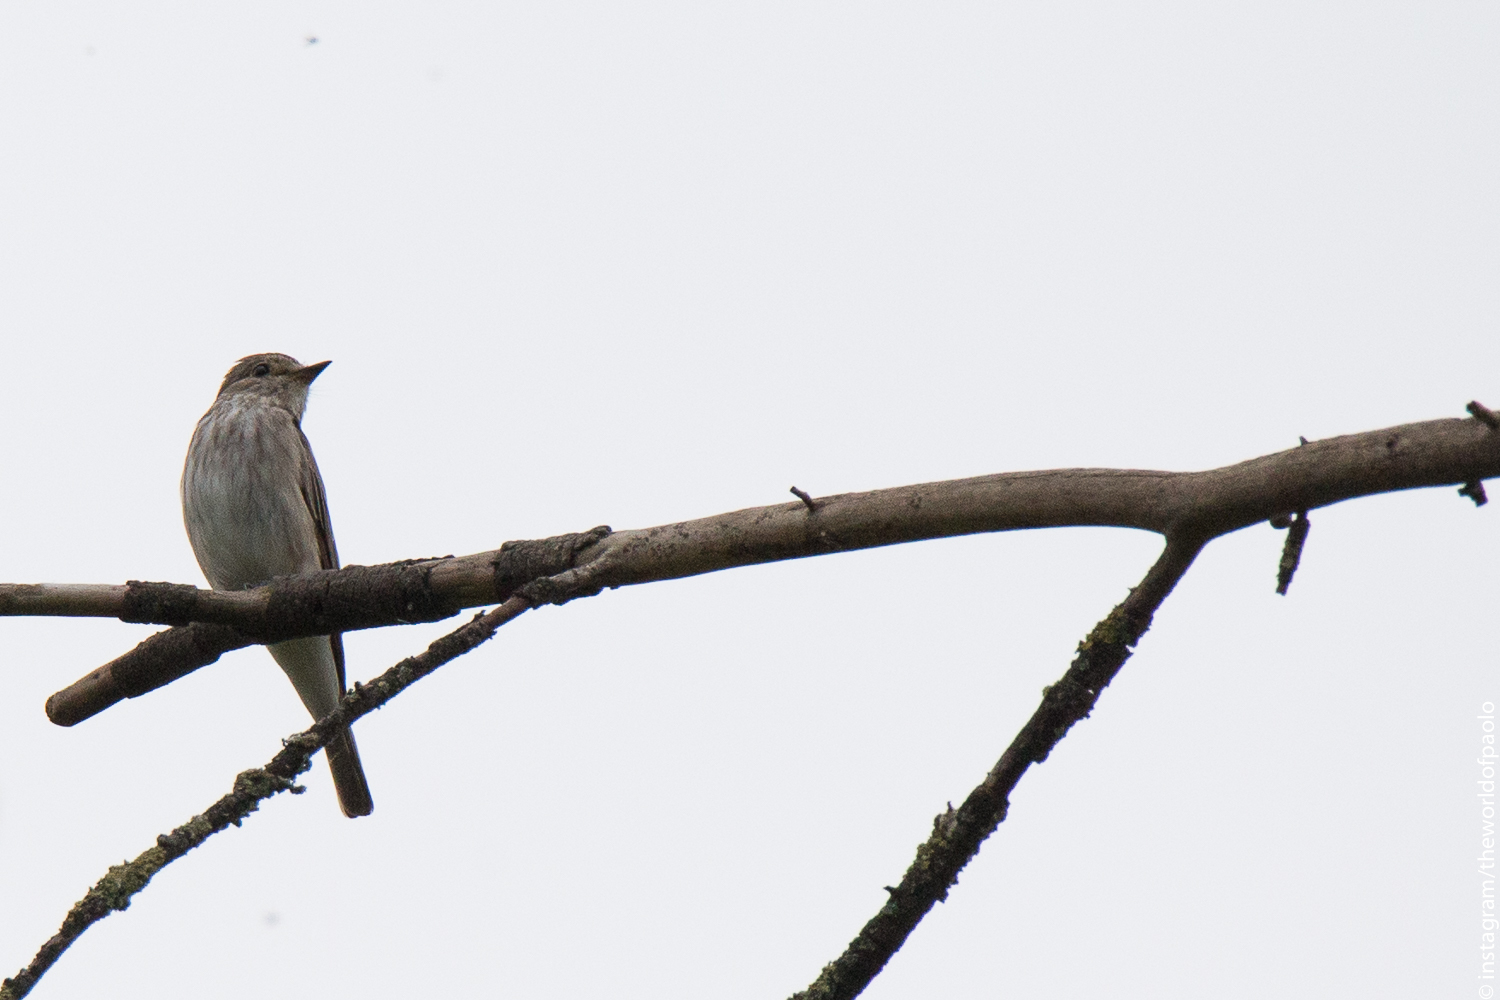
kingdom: Animalia
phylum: Chordata
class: Aves
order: Passeriformes
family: Muscicapidae
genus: Muscicapa
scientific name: Muscicapa striata
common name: Spotted flycatcher
